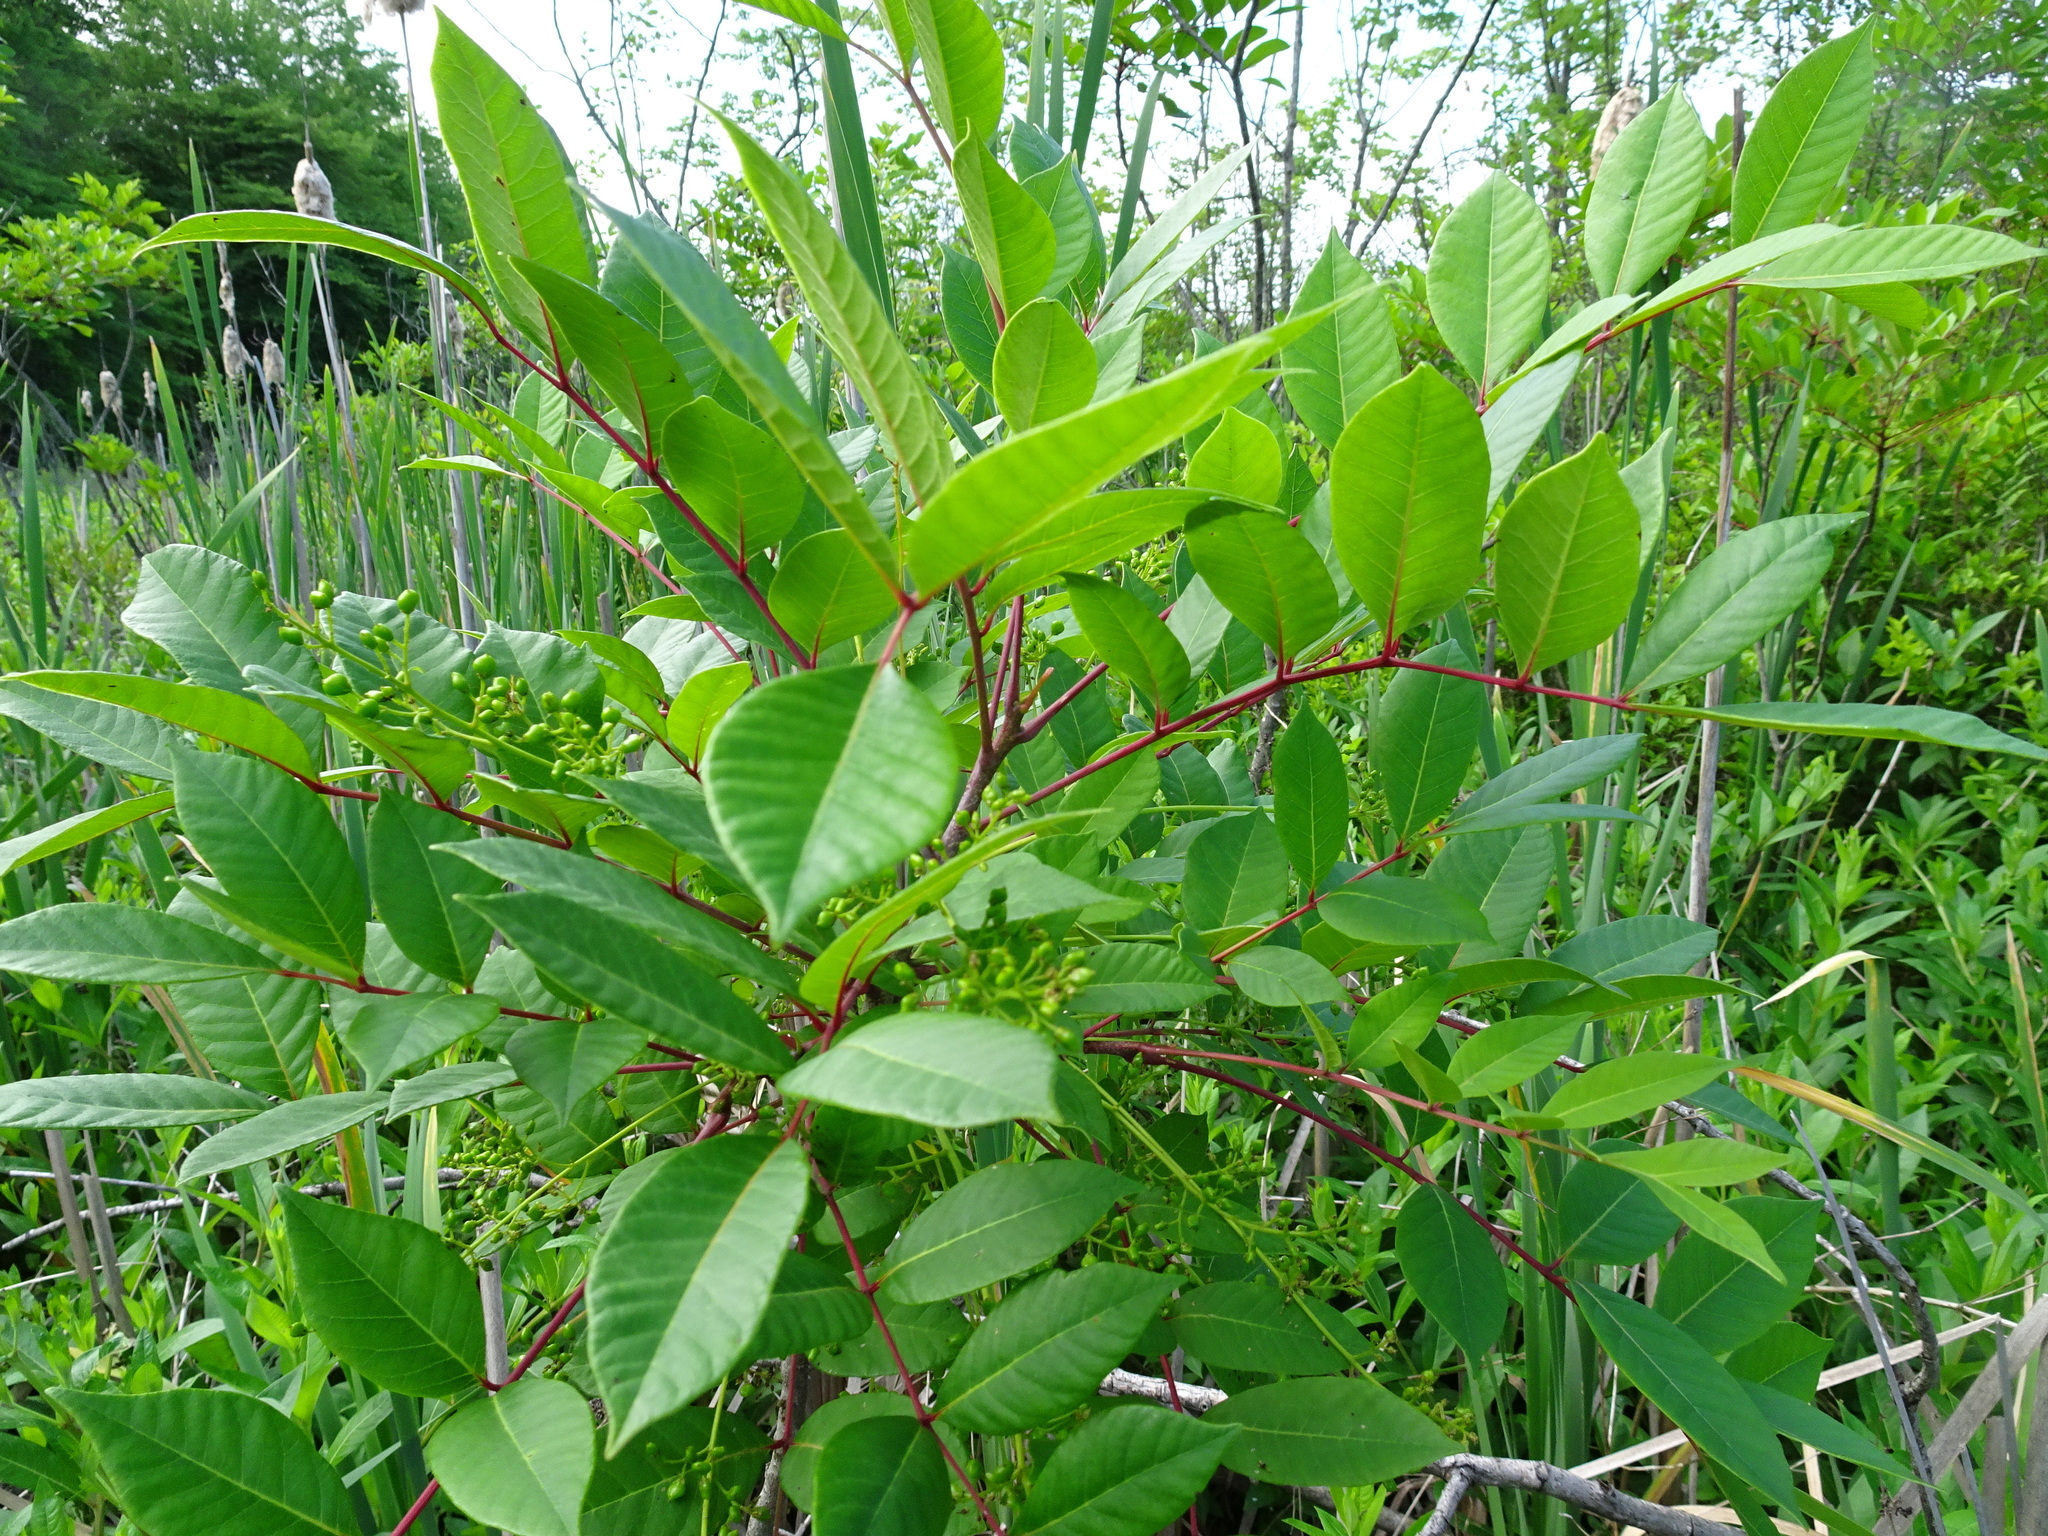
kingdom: Plantae
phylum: Tracheophyta
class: Magnoliopsida
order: Sapindales
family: Anacardiaceae
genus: Toxicodendron
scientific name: Toxicodendron vernix
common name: Poison sumac
